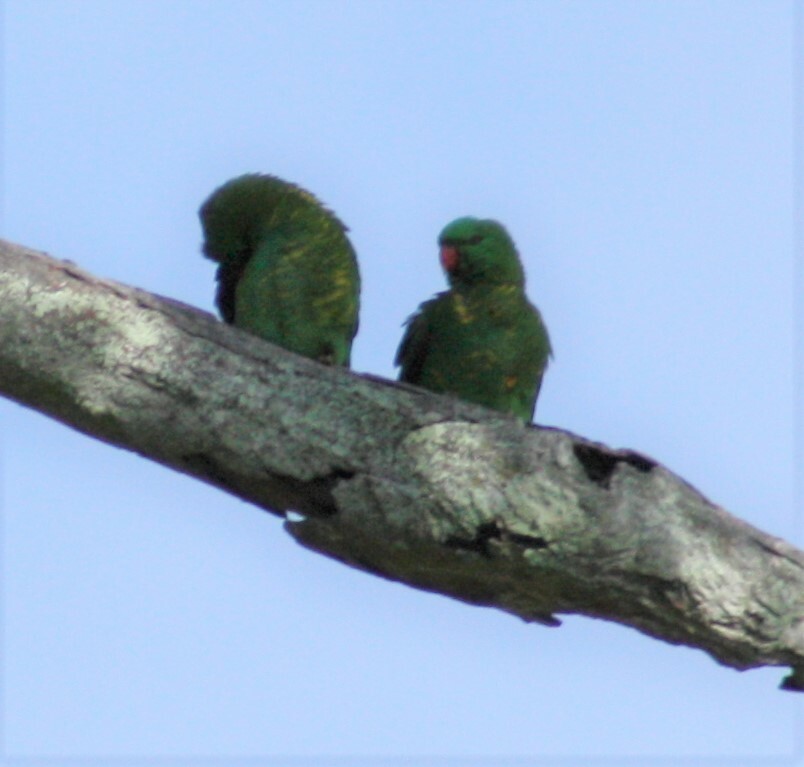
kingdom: Animalia
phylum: Chordata
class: Aves
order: Psittaciformes
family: Psittacidae
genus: Trichoglossus
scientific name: Trichoglossus chlorolepidotus
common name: Scaly-breasted lorikeet
